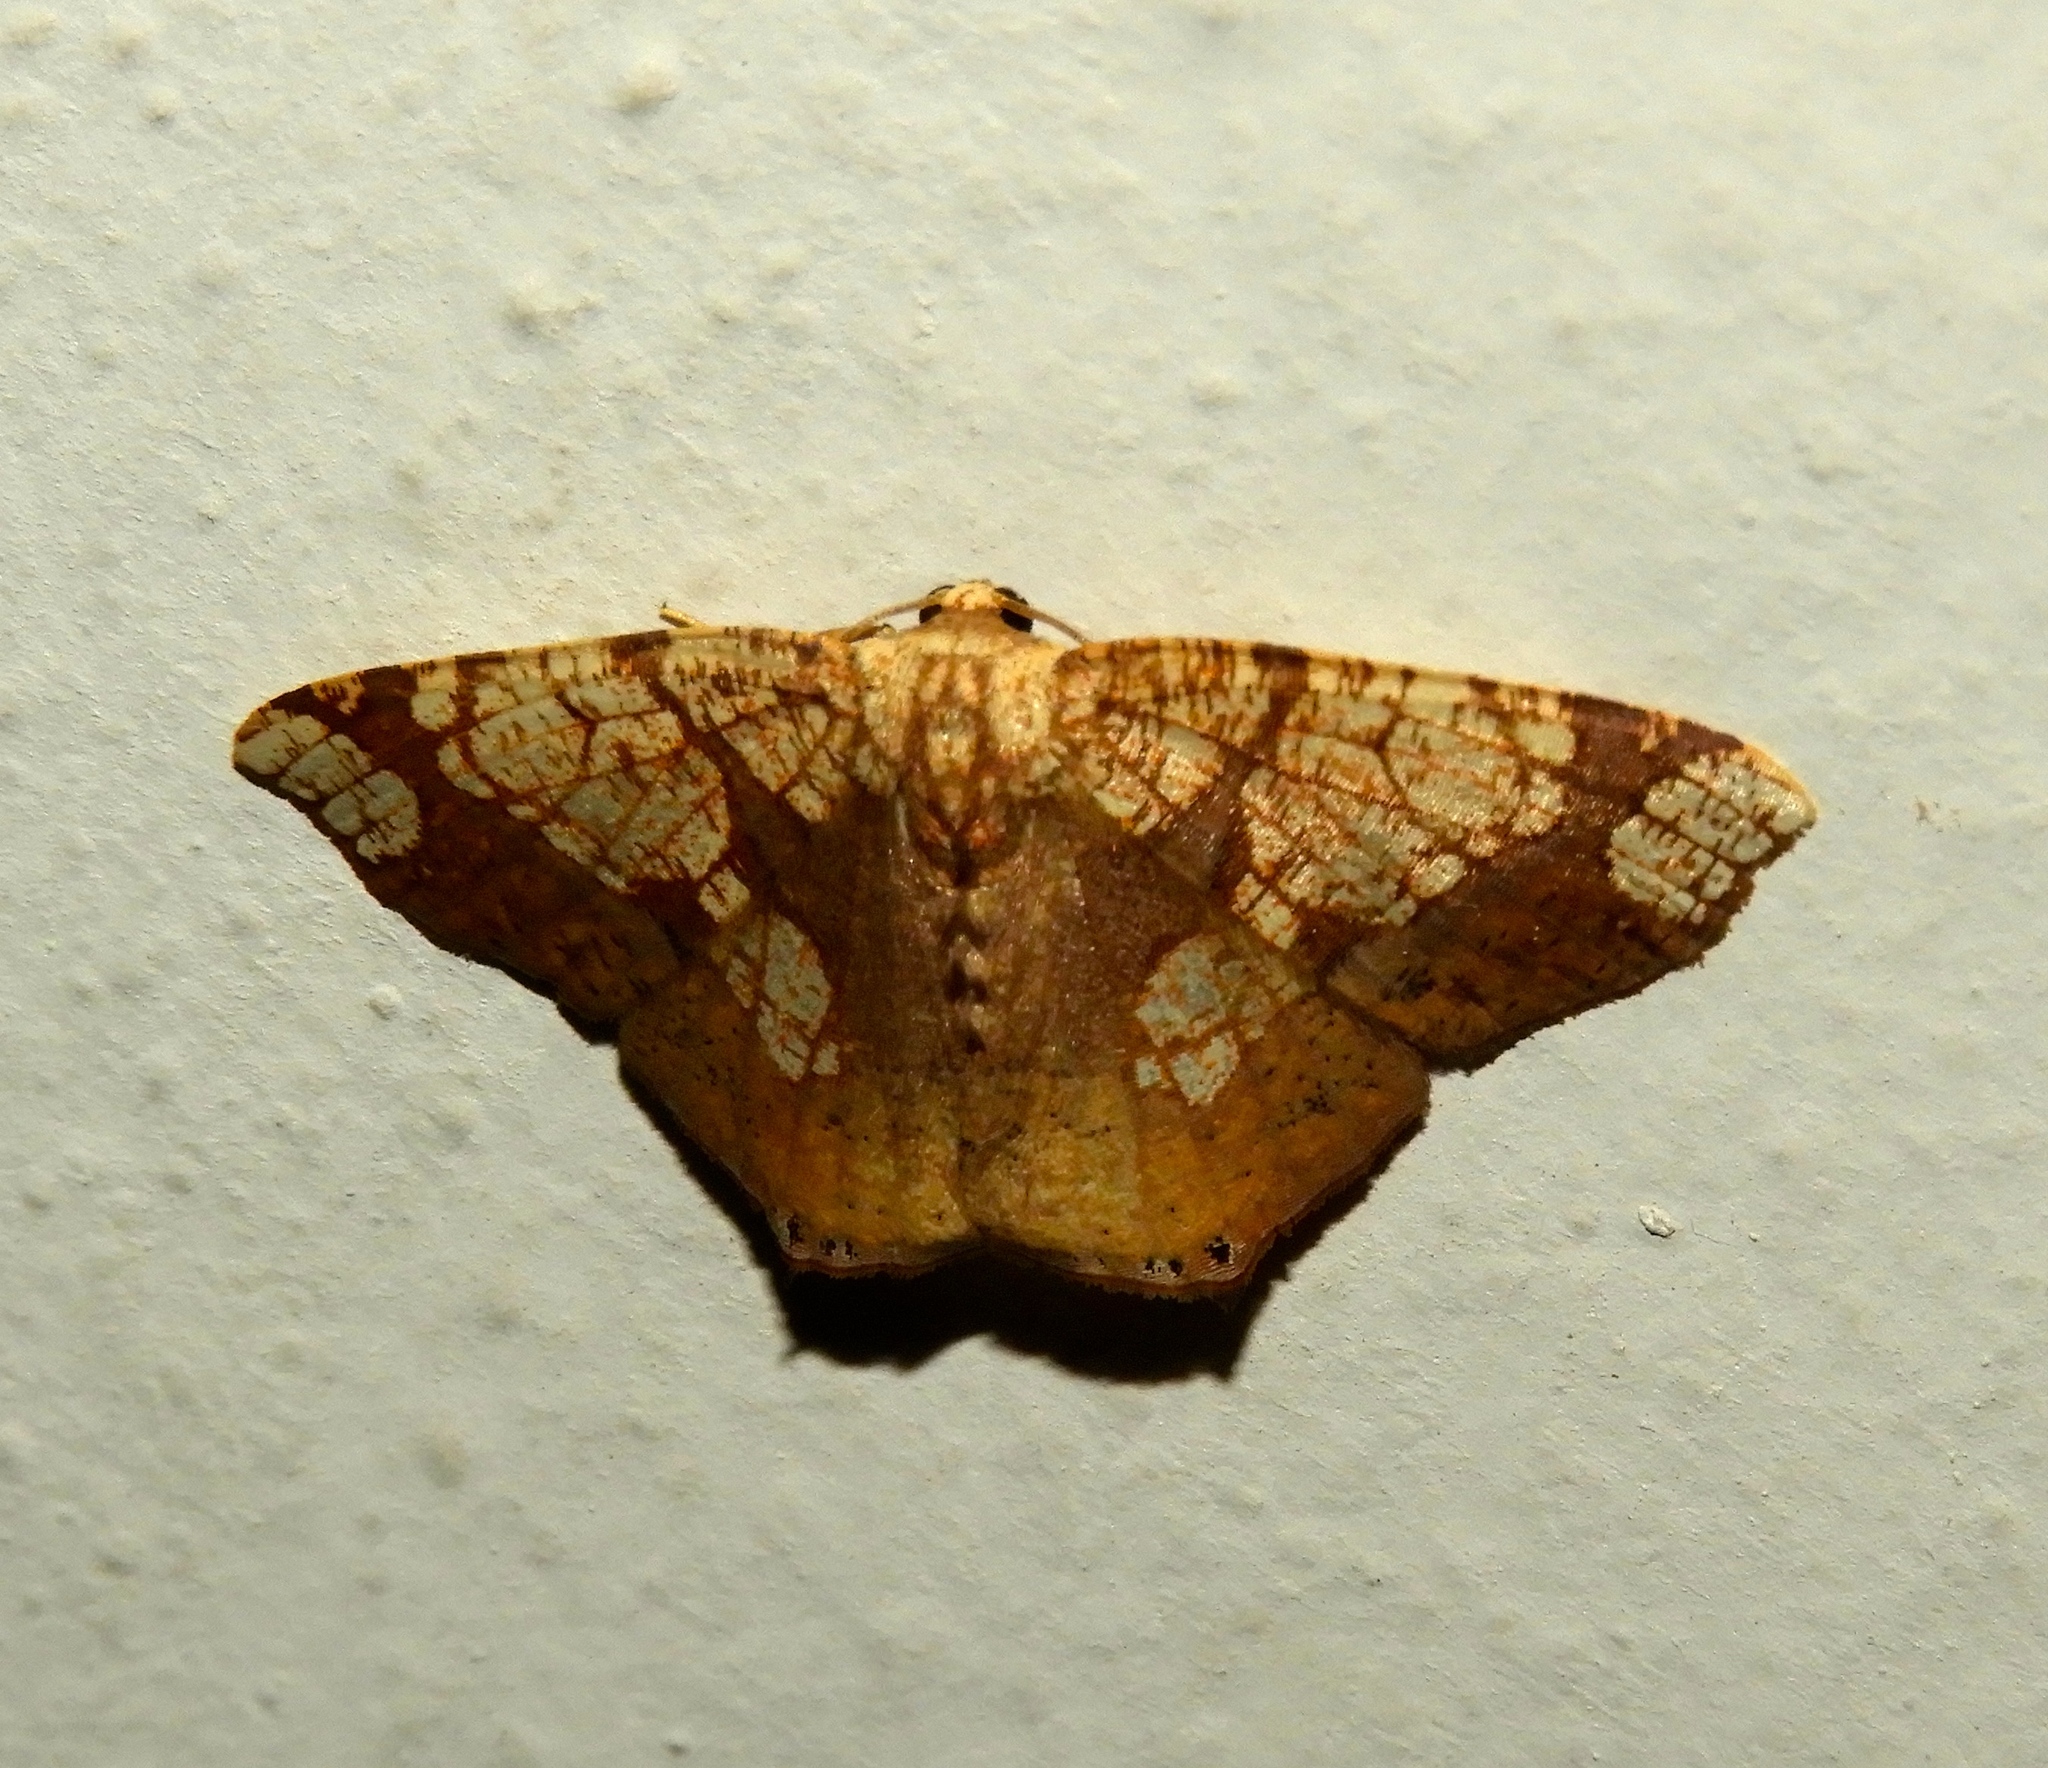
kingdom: Animalia
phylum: Arthropoda
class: Insecta
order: Lepidoptera
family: Geometridae
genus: Nematocampa
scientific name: Nematocampa completa
